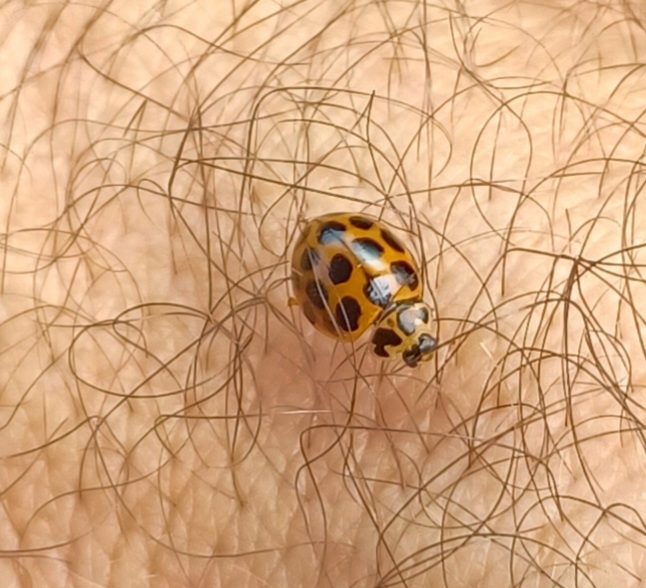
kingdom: Animalia
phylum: Arthropoda
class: Insecta
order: Coleoptera
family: Coccinellidae
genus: Harmonia
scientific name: Harmonia conformis
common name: Common spotted ladybird beetle
